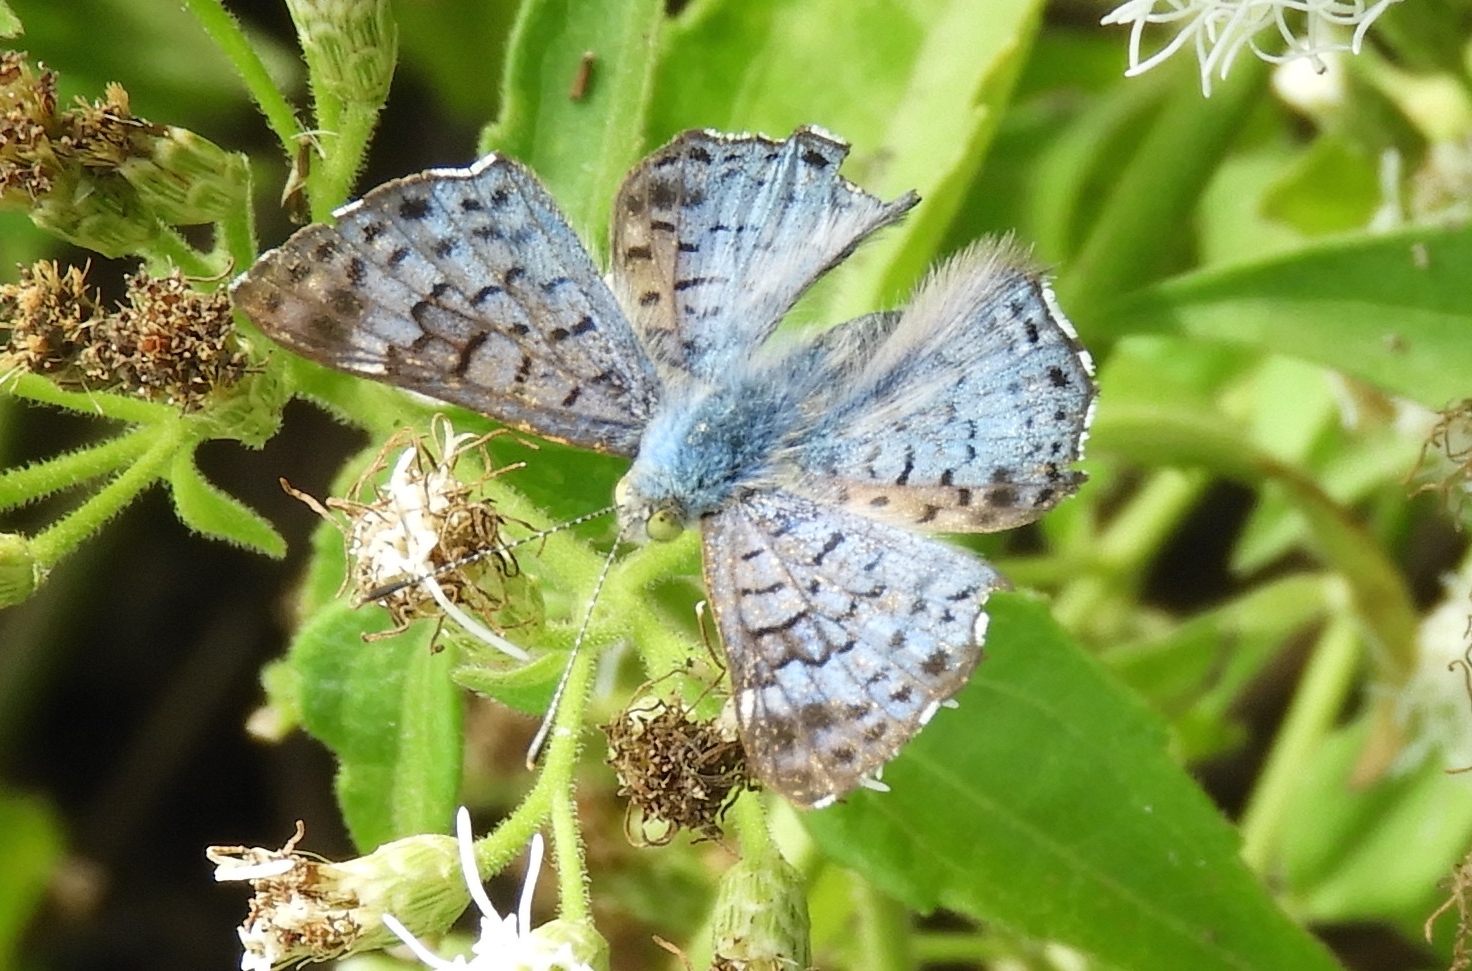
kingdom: Animalia
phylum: Arthropoda
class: Insecta
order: Lepidoptera
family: Riodinidae
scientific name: Riodinidae
